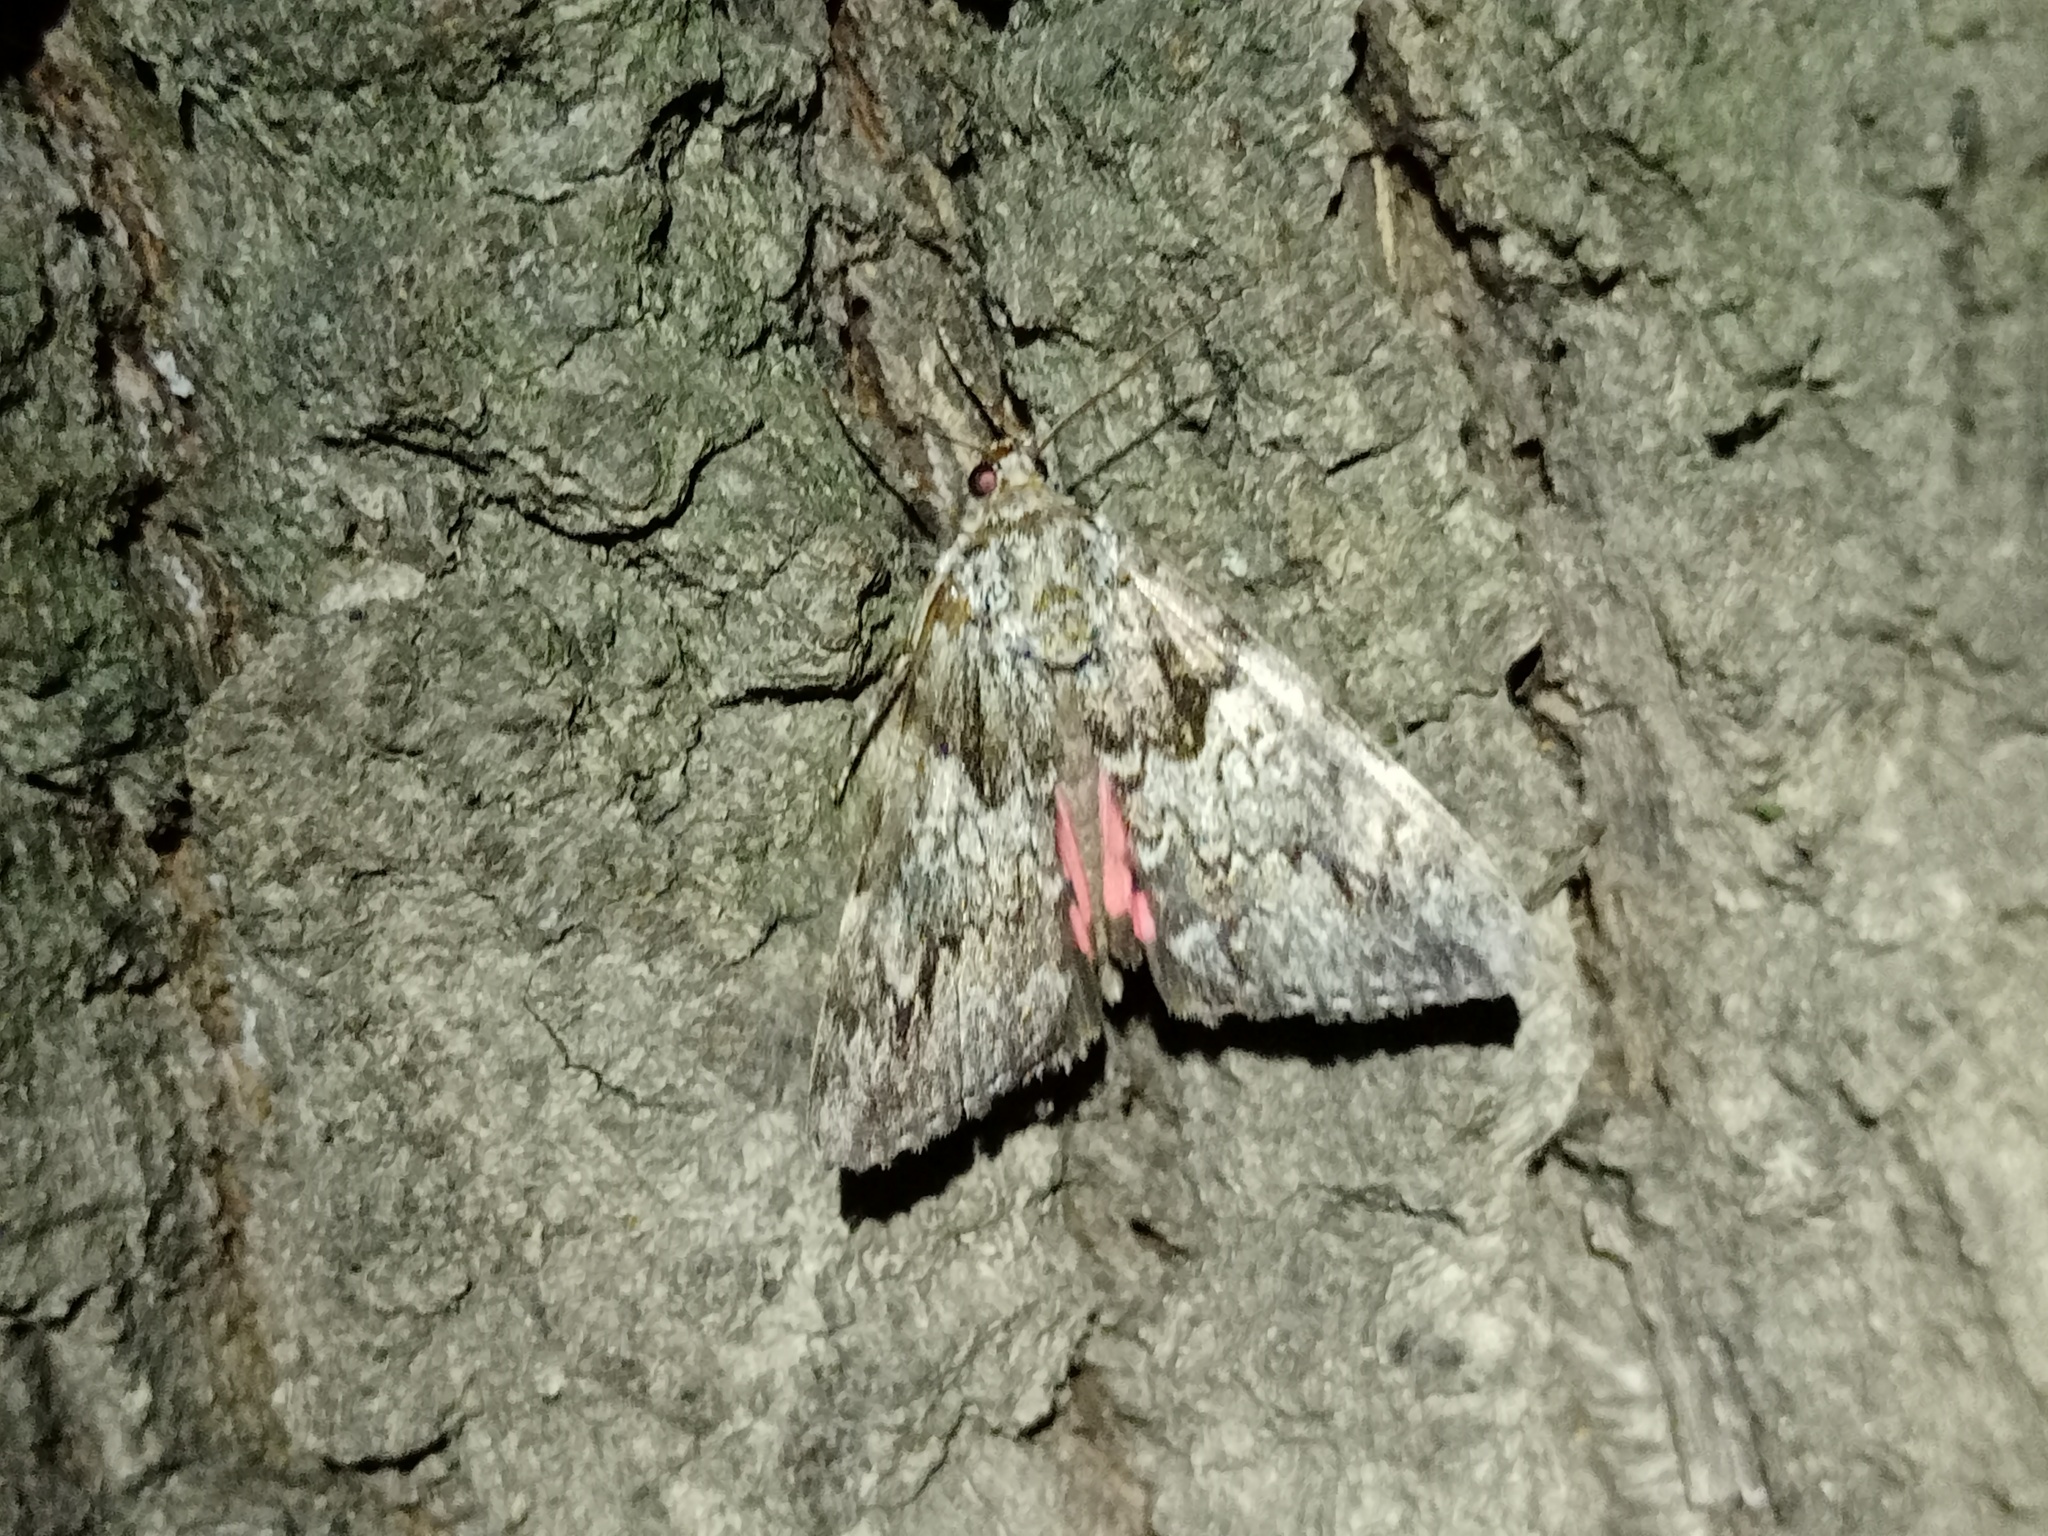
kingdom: Animalia
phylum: Arthropoda
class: Insecta
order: Lepidoptera
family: Erebidae
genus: Catocala
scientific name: Catocala promissa
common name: Light crimson underwing
